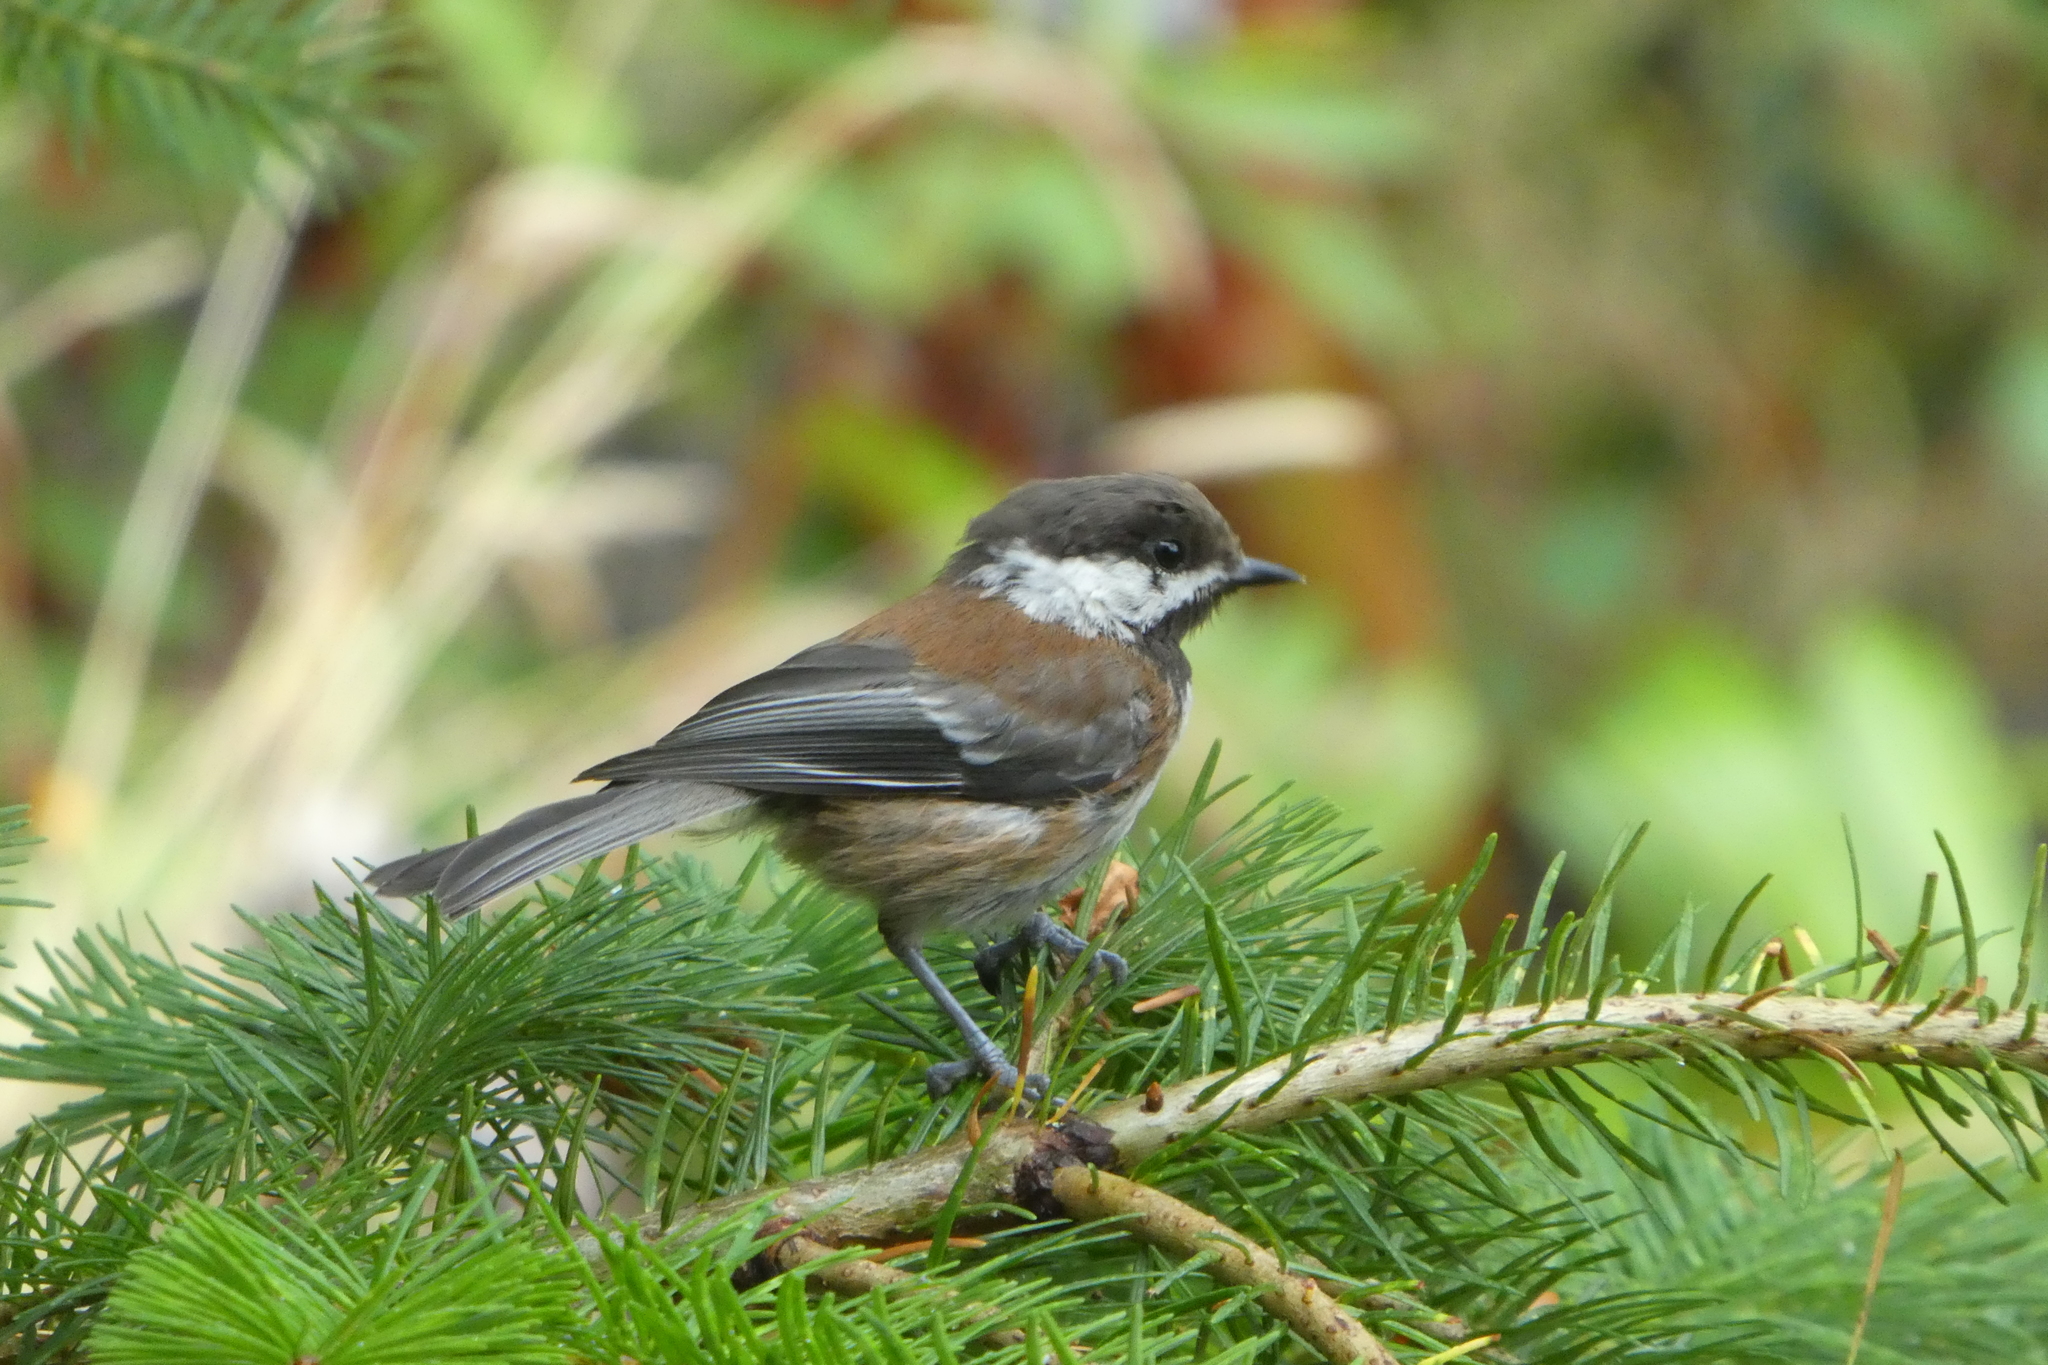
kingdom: Animalia
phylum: Chordata
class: Aves
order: Passeriformes
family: Paridae
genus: Poecile
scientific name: Poecile rufescens
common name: Chestnut-backed chickadee
